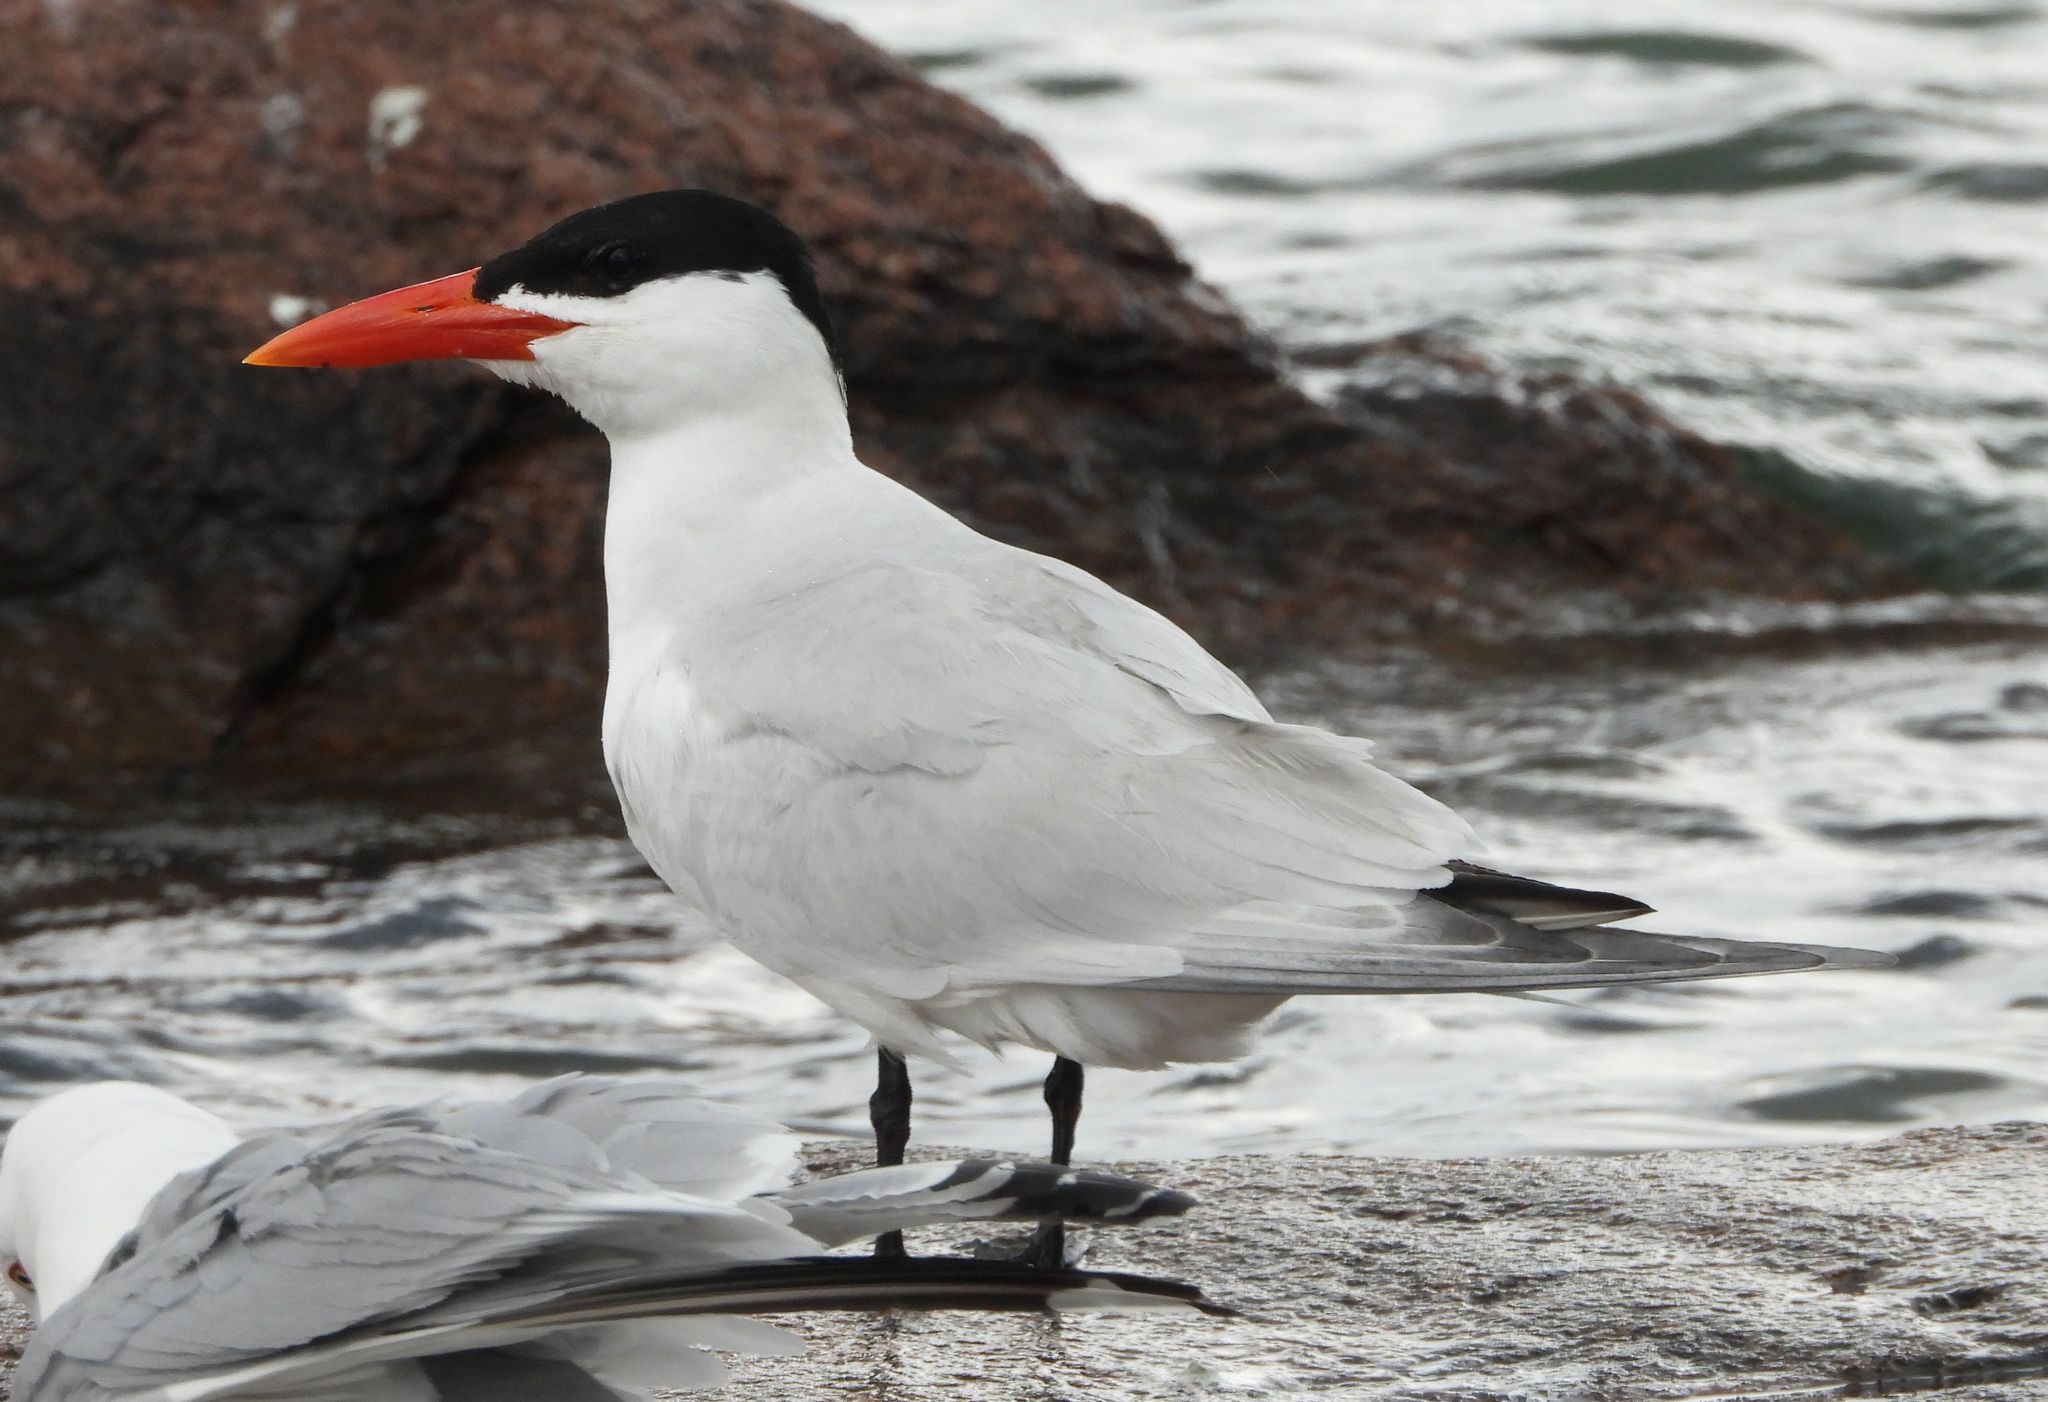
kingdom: Animalia
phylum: Chordata
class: Aves
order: Charadriiformes
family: Laridae
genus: Hydroprogne
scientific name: Hydroprogne caspia
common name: Caspian tern
